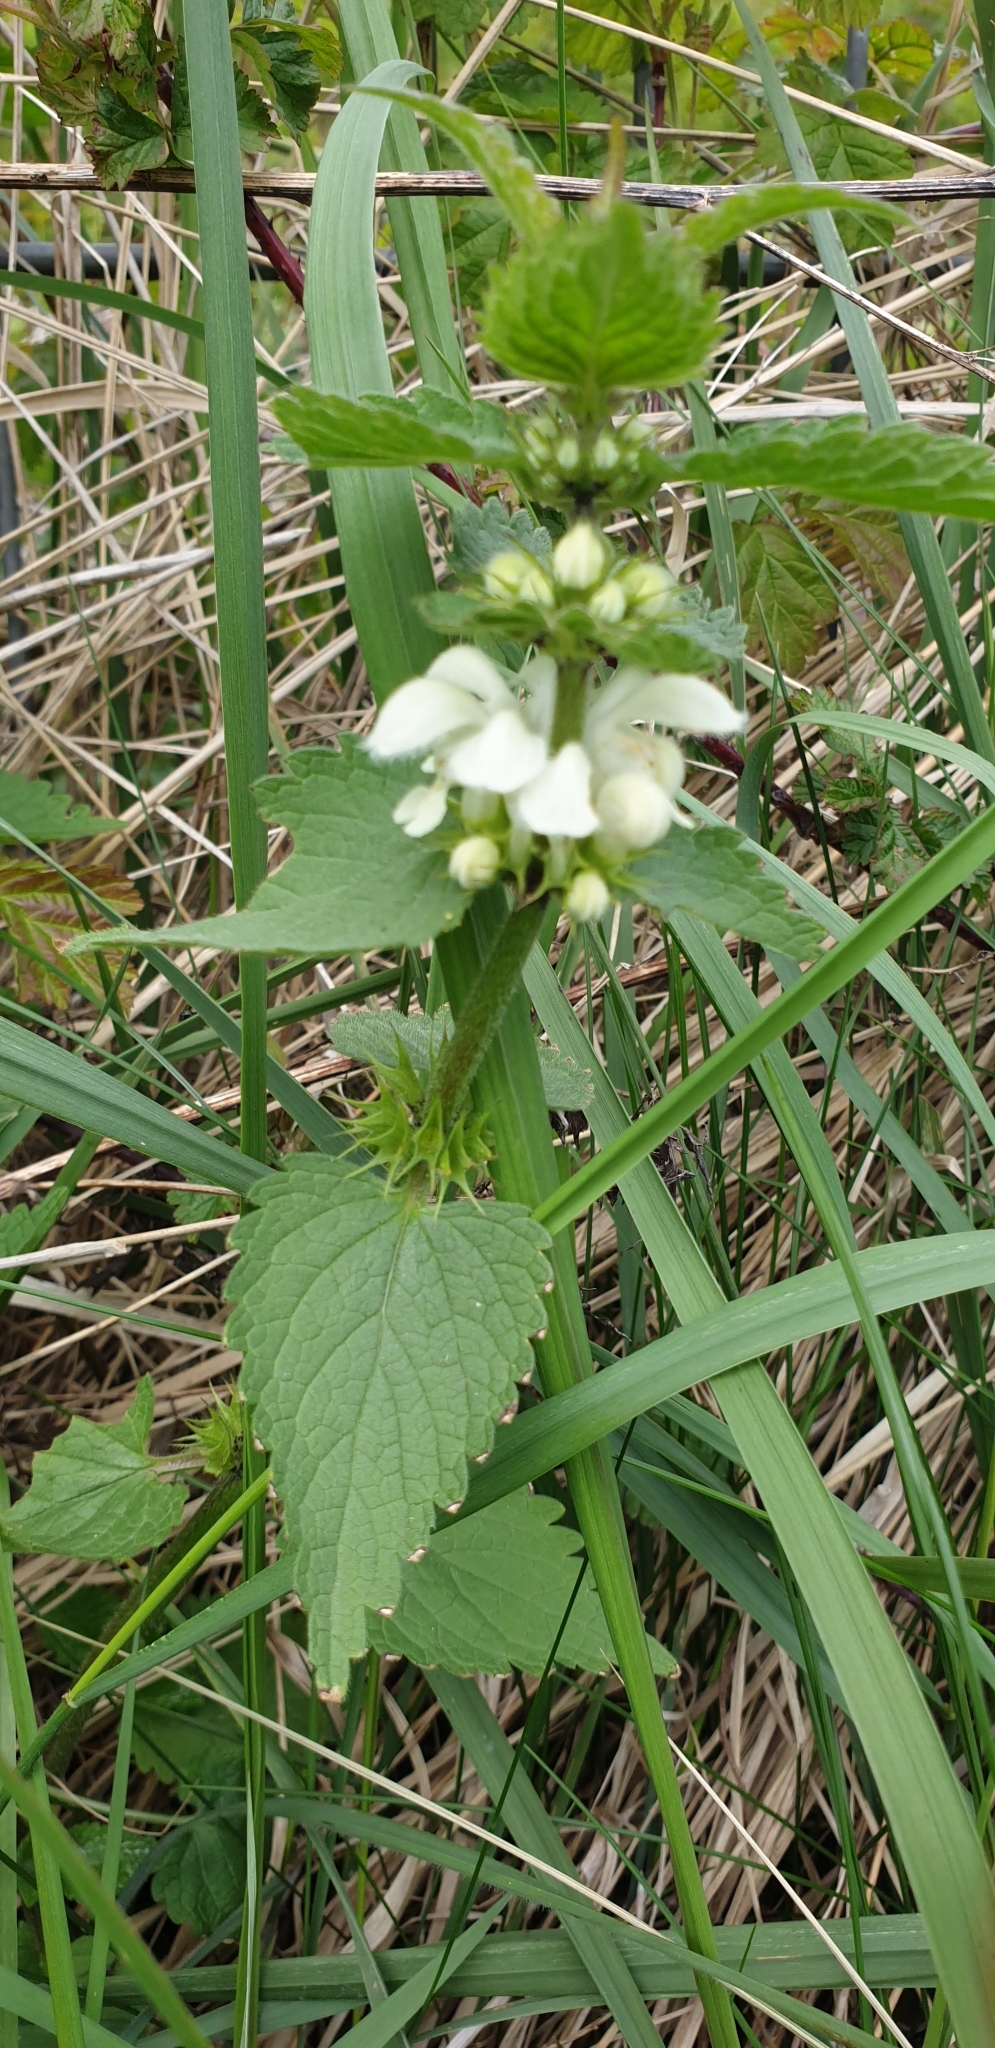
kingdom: Plantae
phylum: Tracheophyta
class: Magnoliopsida
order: Lamiales
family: Lamiaceae
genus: Lamium
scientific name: Lamium album
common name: White dead-nettle
